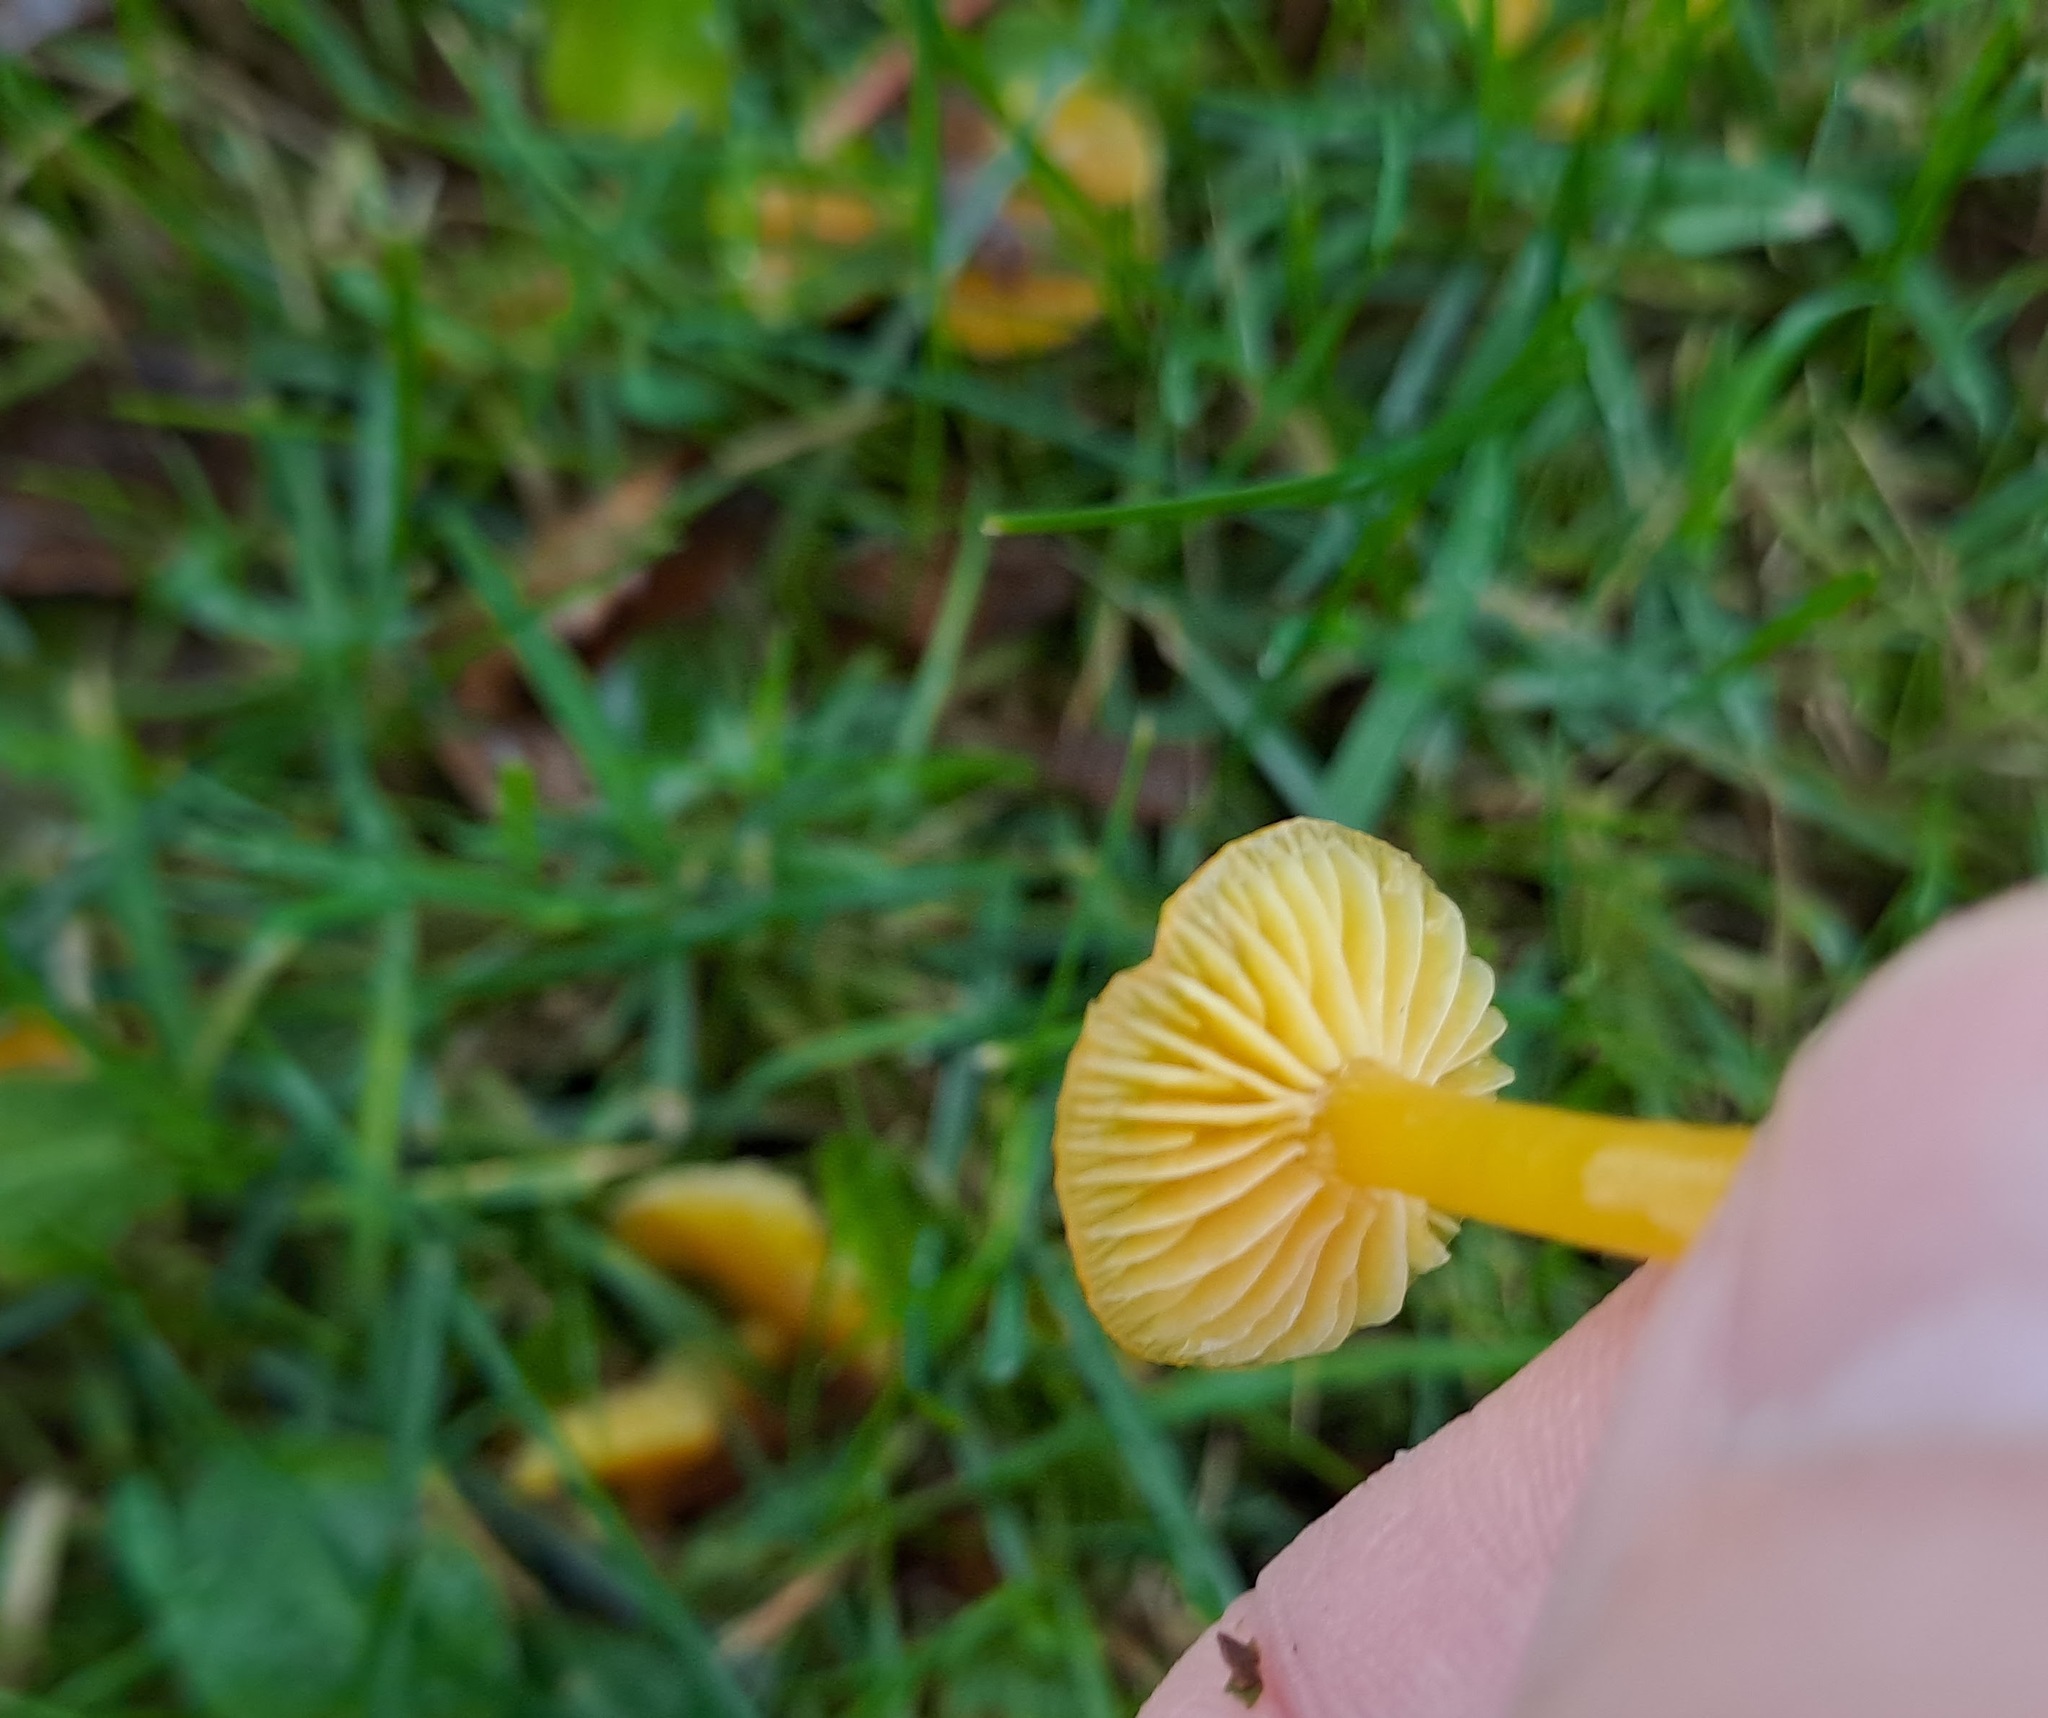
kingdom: Fungi
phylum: Basidiomycota
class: Agaricomycetes
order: Agaricales
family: Hygrophoraceae
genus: Hygrocybe
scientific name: Hygrocybe ceracea
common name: Butter waxcap
